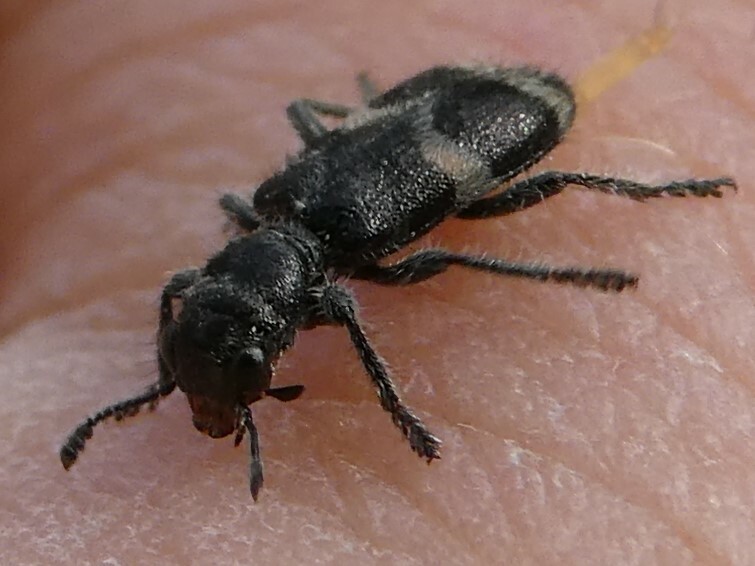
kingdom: Animalia
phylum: Arthropoda
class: Insecta
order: Coleoptera
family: Cleridae
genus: Enoclerus
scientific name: Enoclerus nigripes
